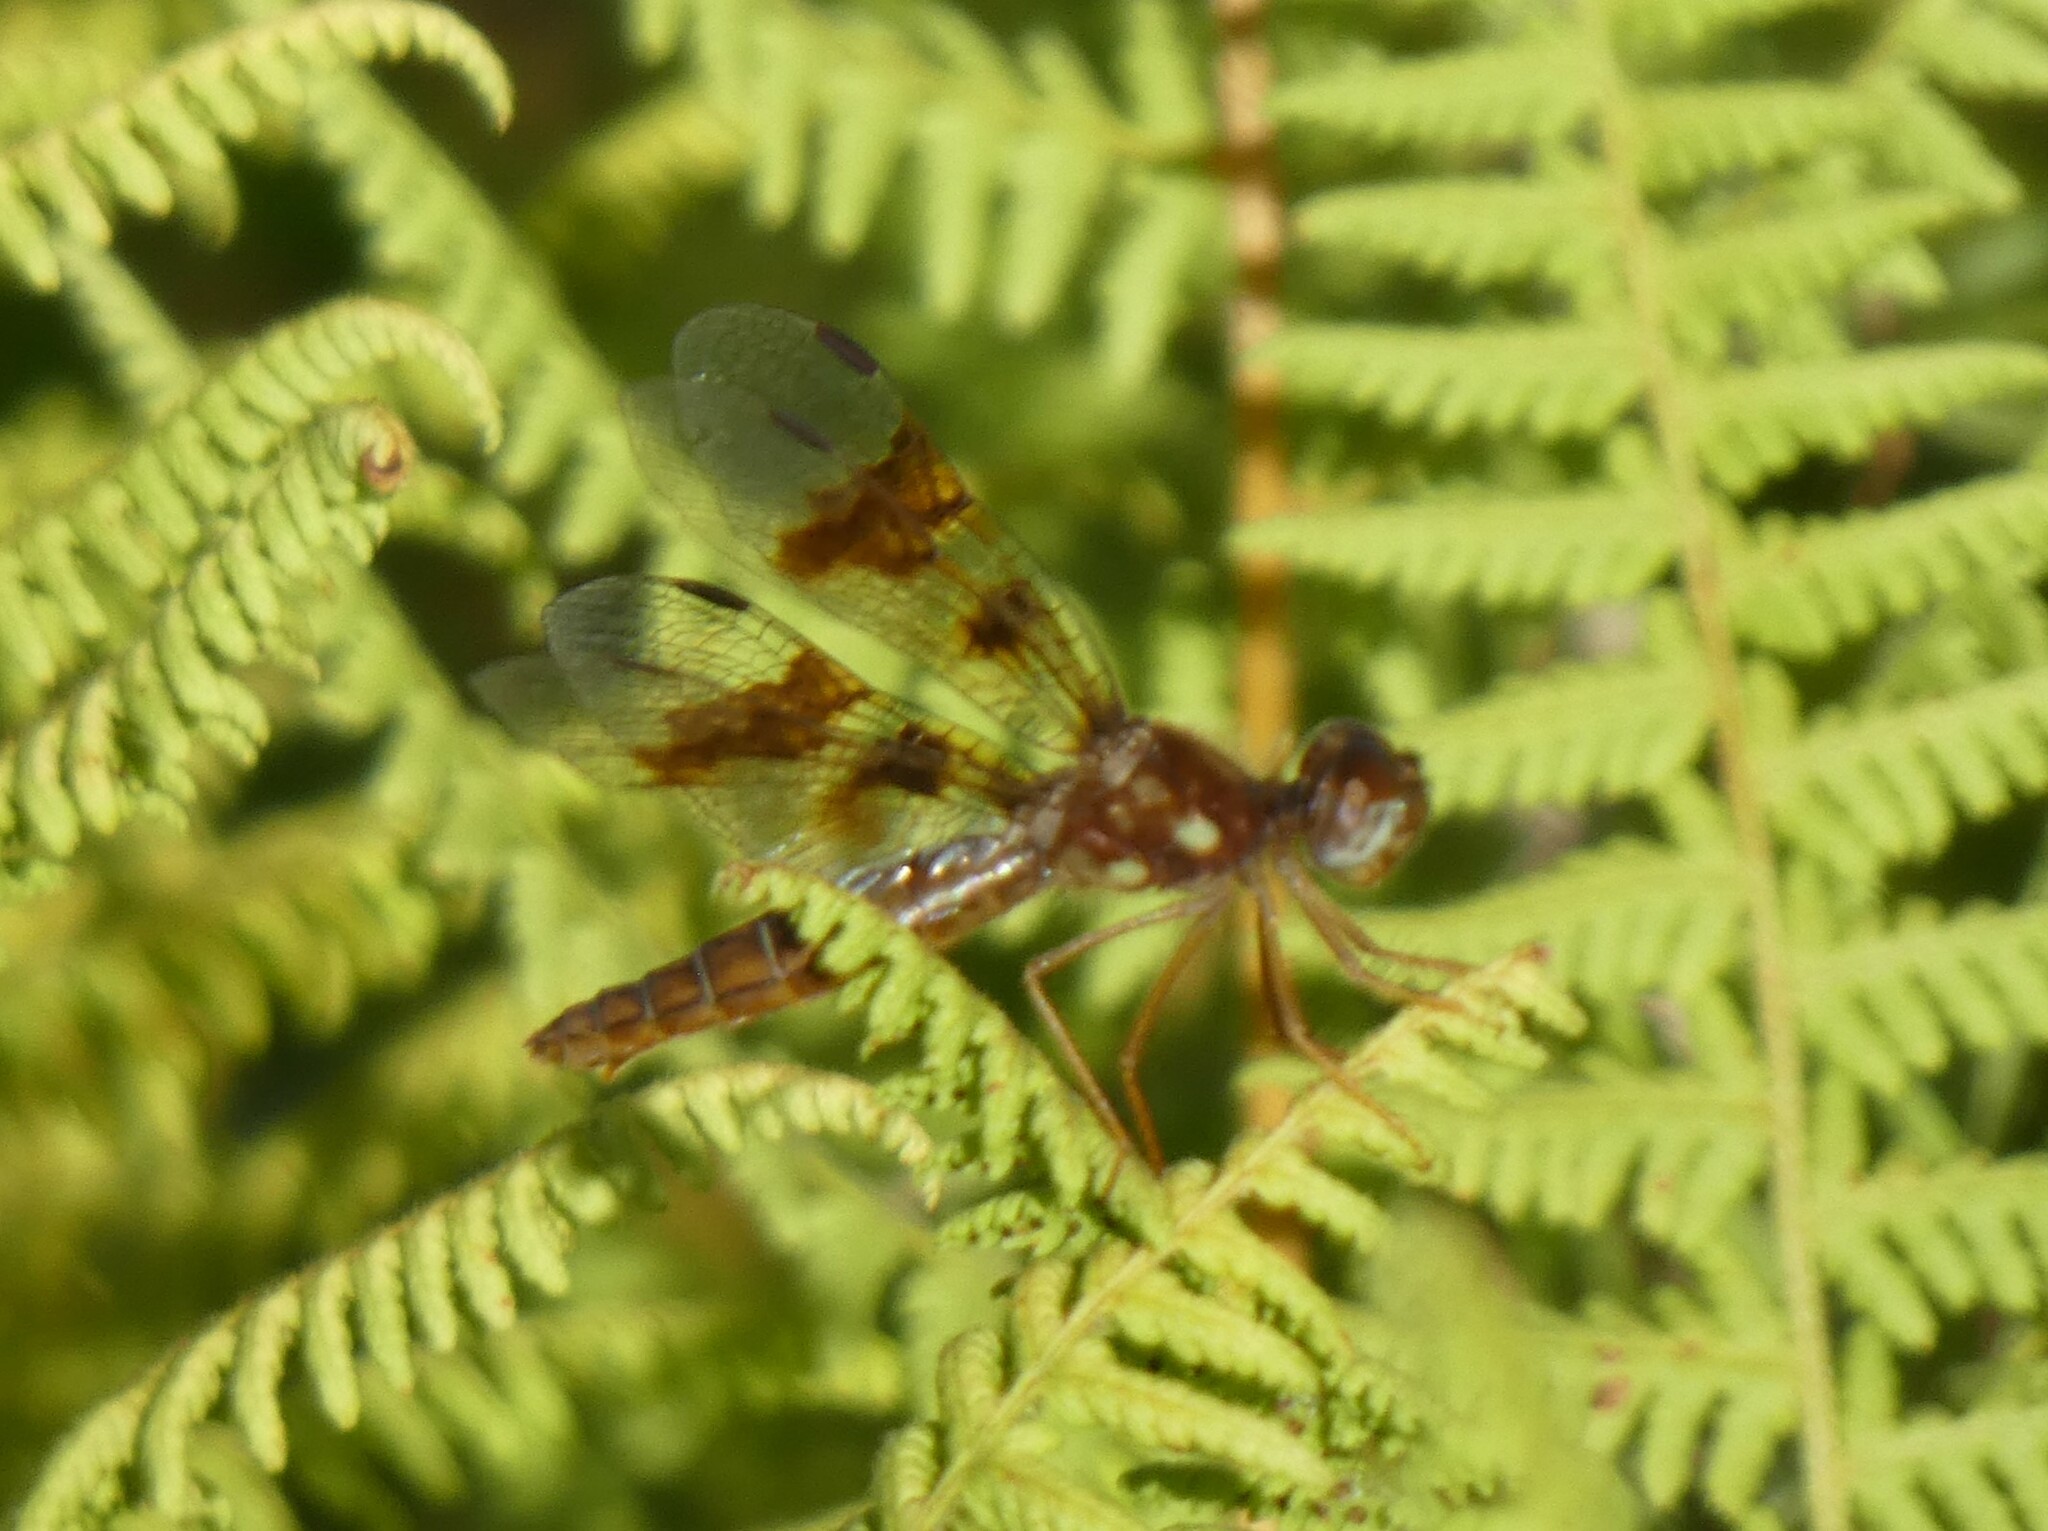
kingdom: Animalia
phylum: Arthropoda
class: Insecta
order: Odonata
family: Libellulidae
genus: Perithemis
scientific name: Perithemis tenera
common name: Eastern amberwing
